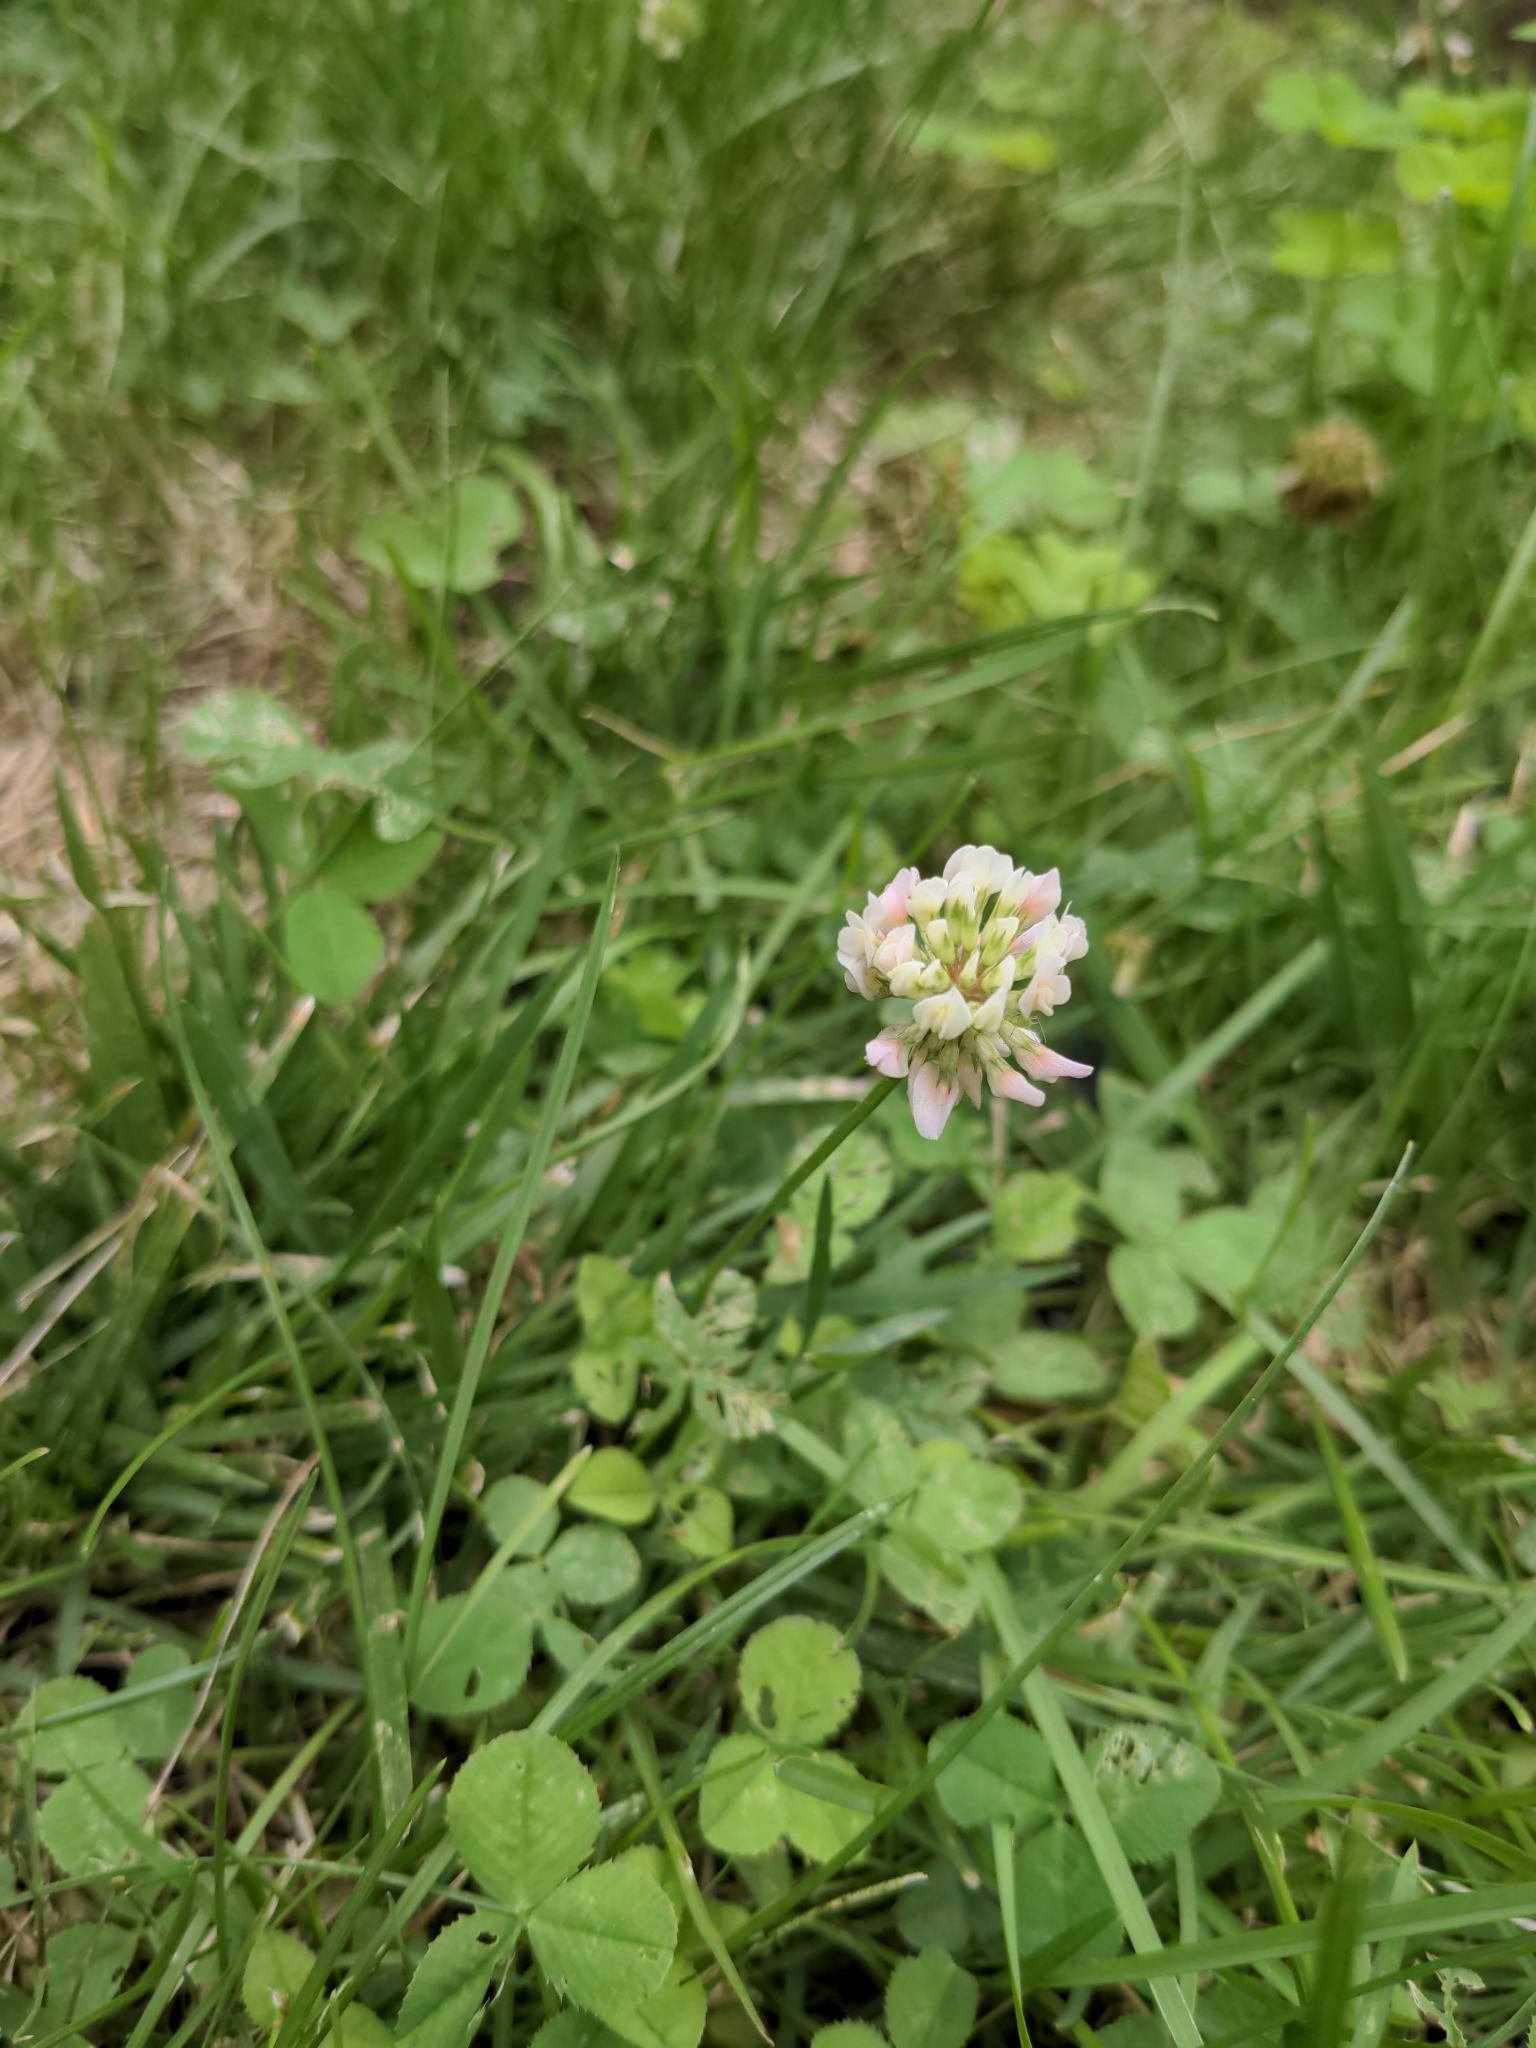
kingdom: Plantae
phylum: Tracheophyta
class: Magnoliopsida
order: Fabales
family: Fabaceae
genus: Trifolium
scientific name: Trifolium repens
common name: White clover
